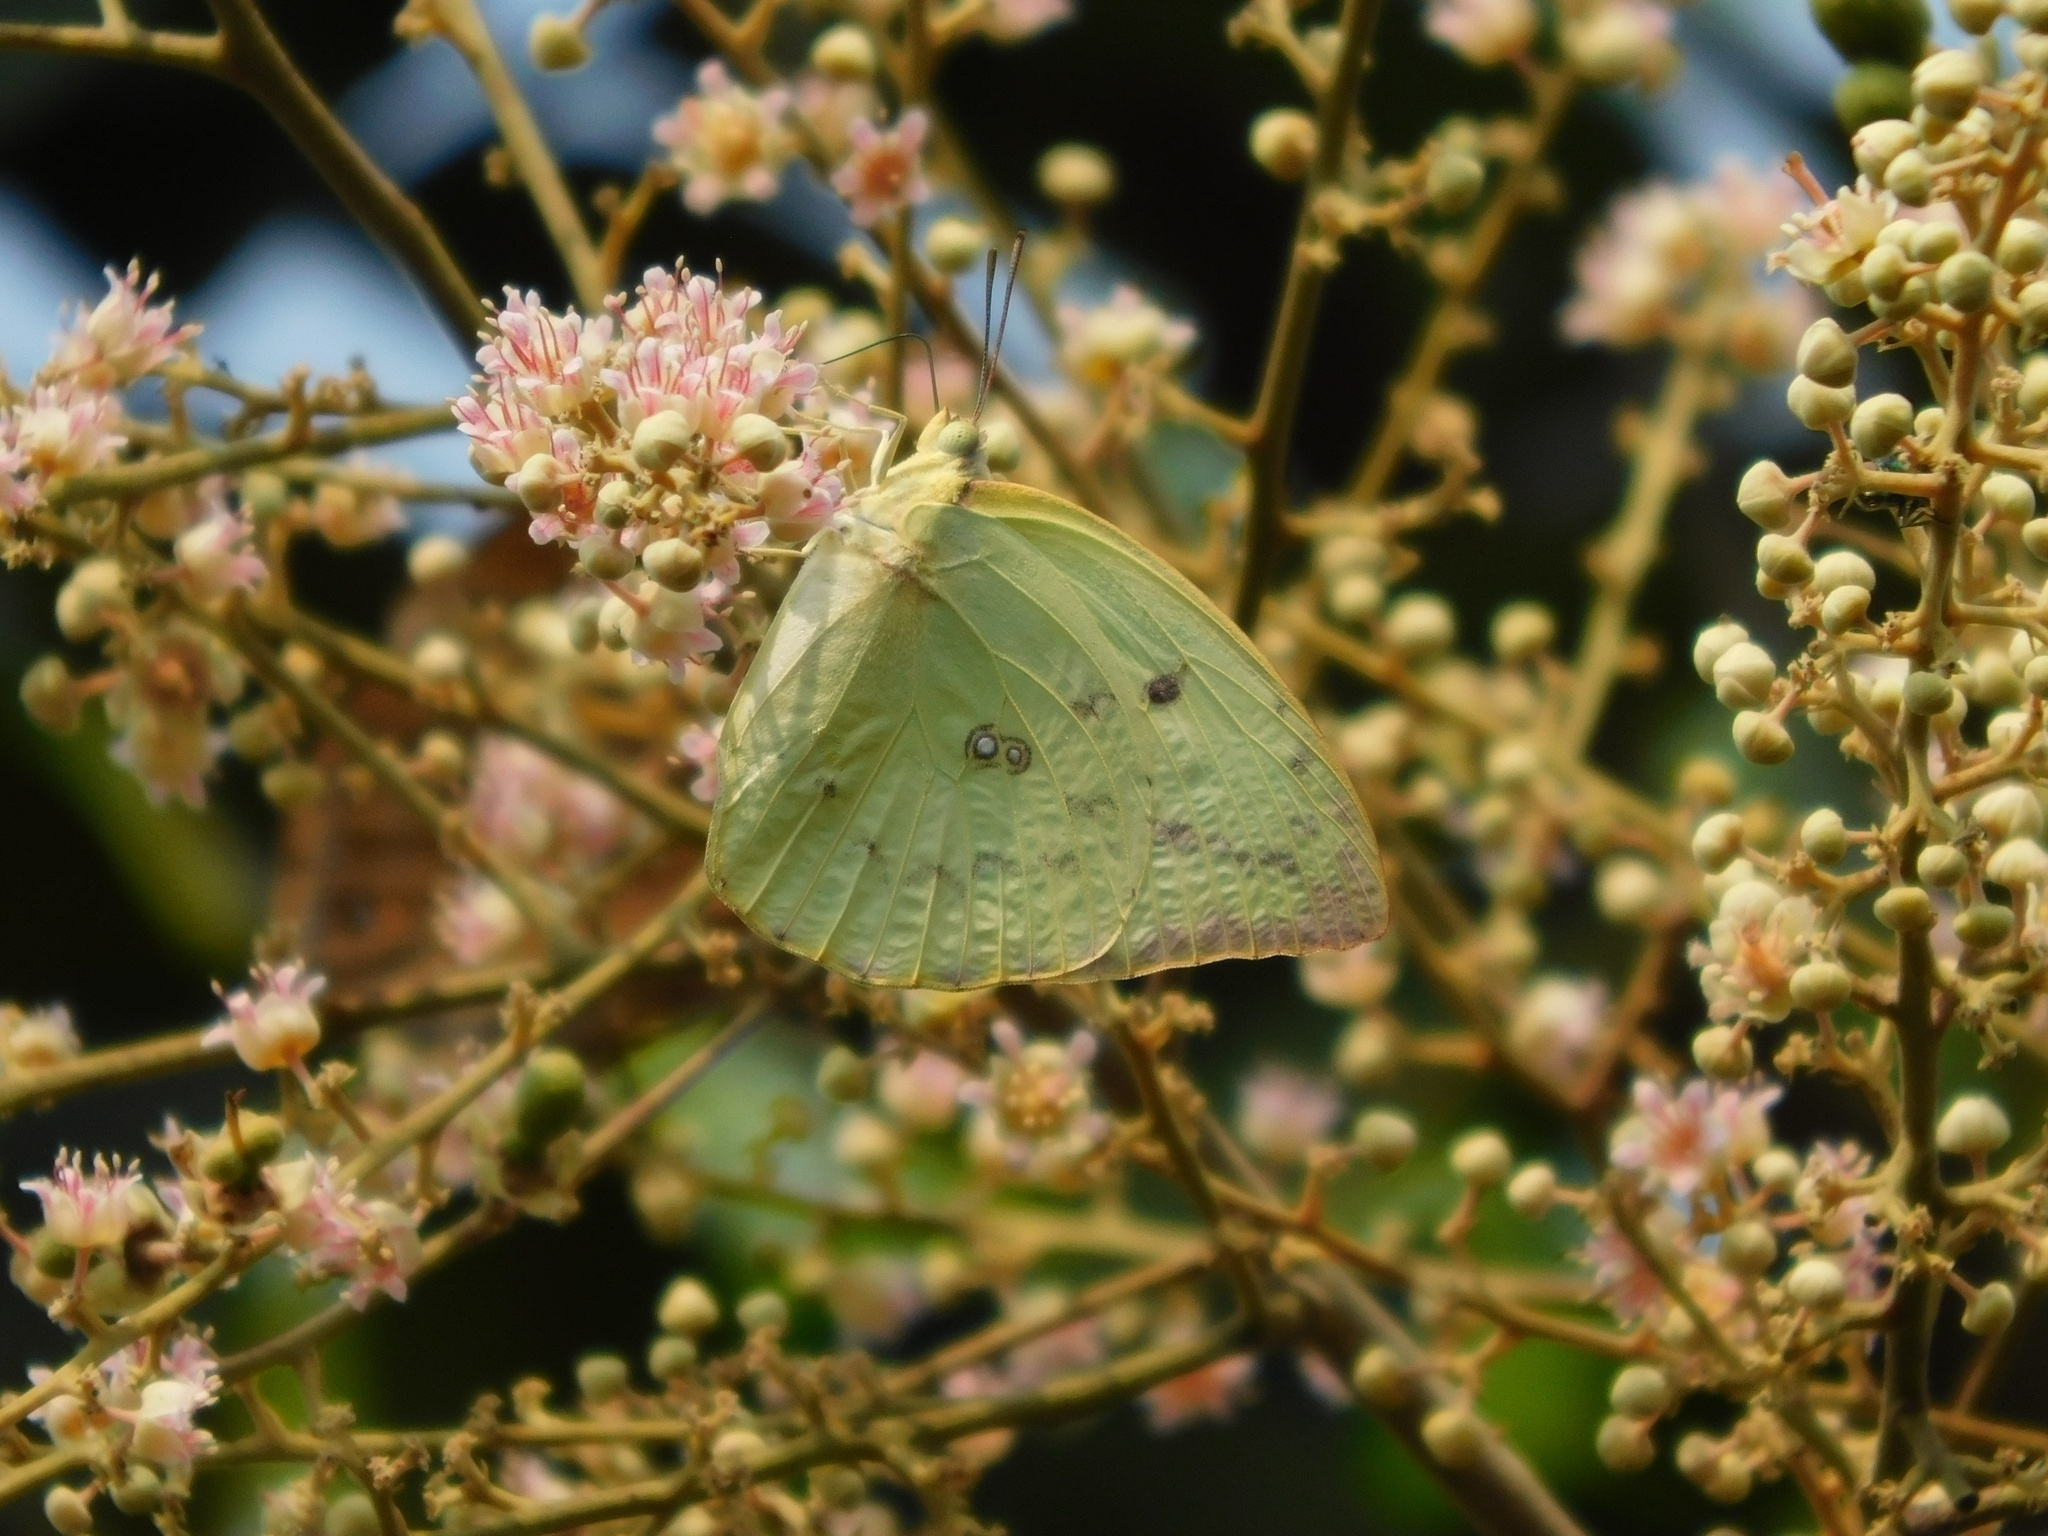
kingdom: Animalia
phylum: Arthropoda
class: Insecta
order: Lepidoptera
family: Pieridae
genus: Catopsilia
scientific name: Catopsilia pomona
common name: Common emigrant
